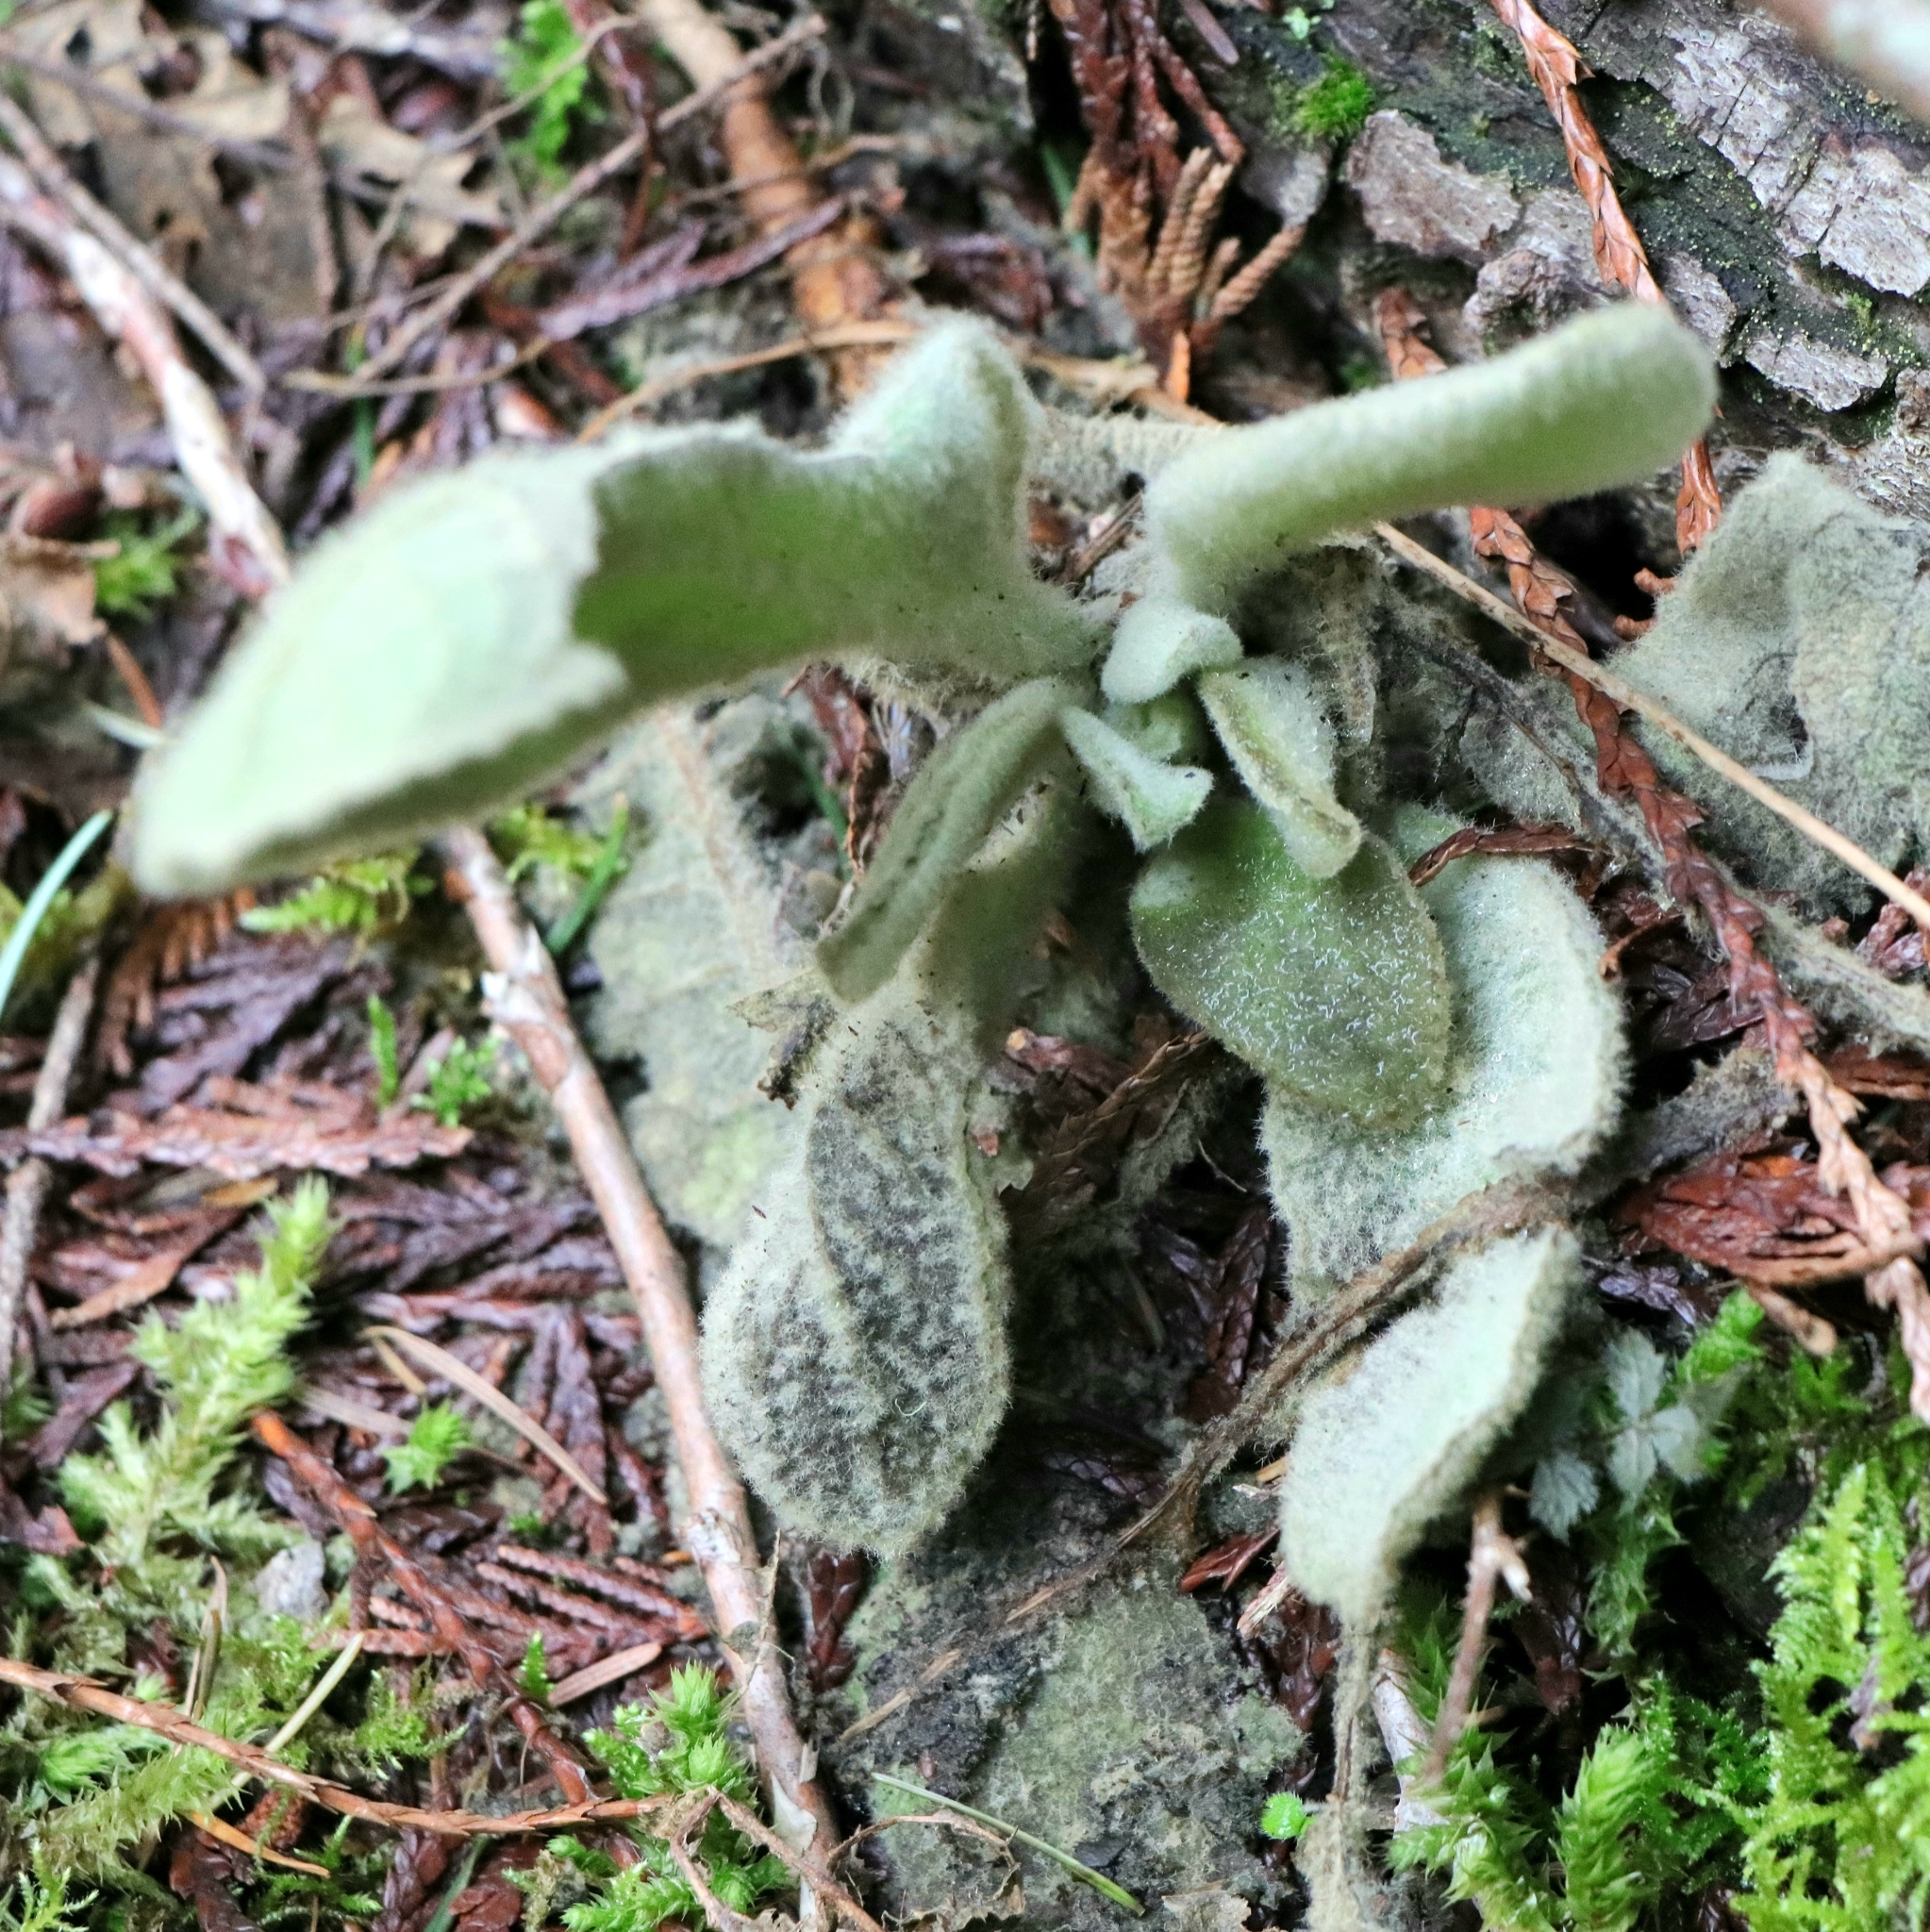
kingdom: Plantae
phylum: Tracheophyta
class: Magnoliopsida
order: Lamiales
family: Scrophulariaceae
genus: Verbascum
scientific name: Verbascum thapsus
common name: Common mullein
